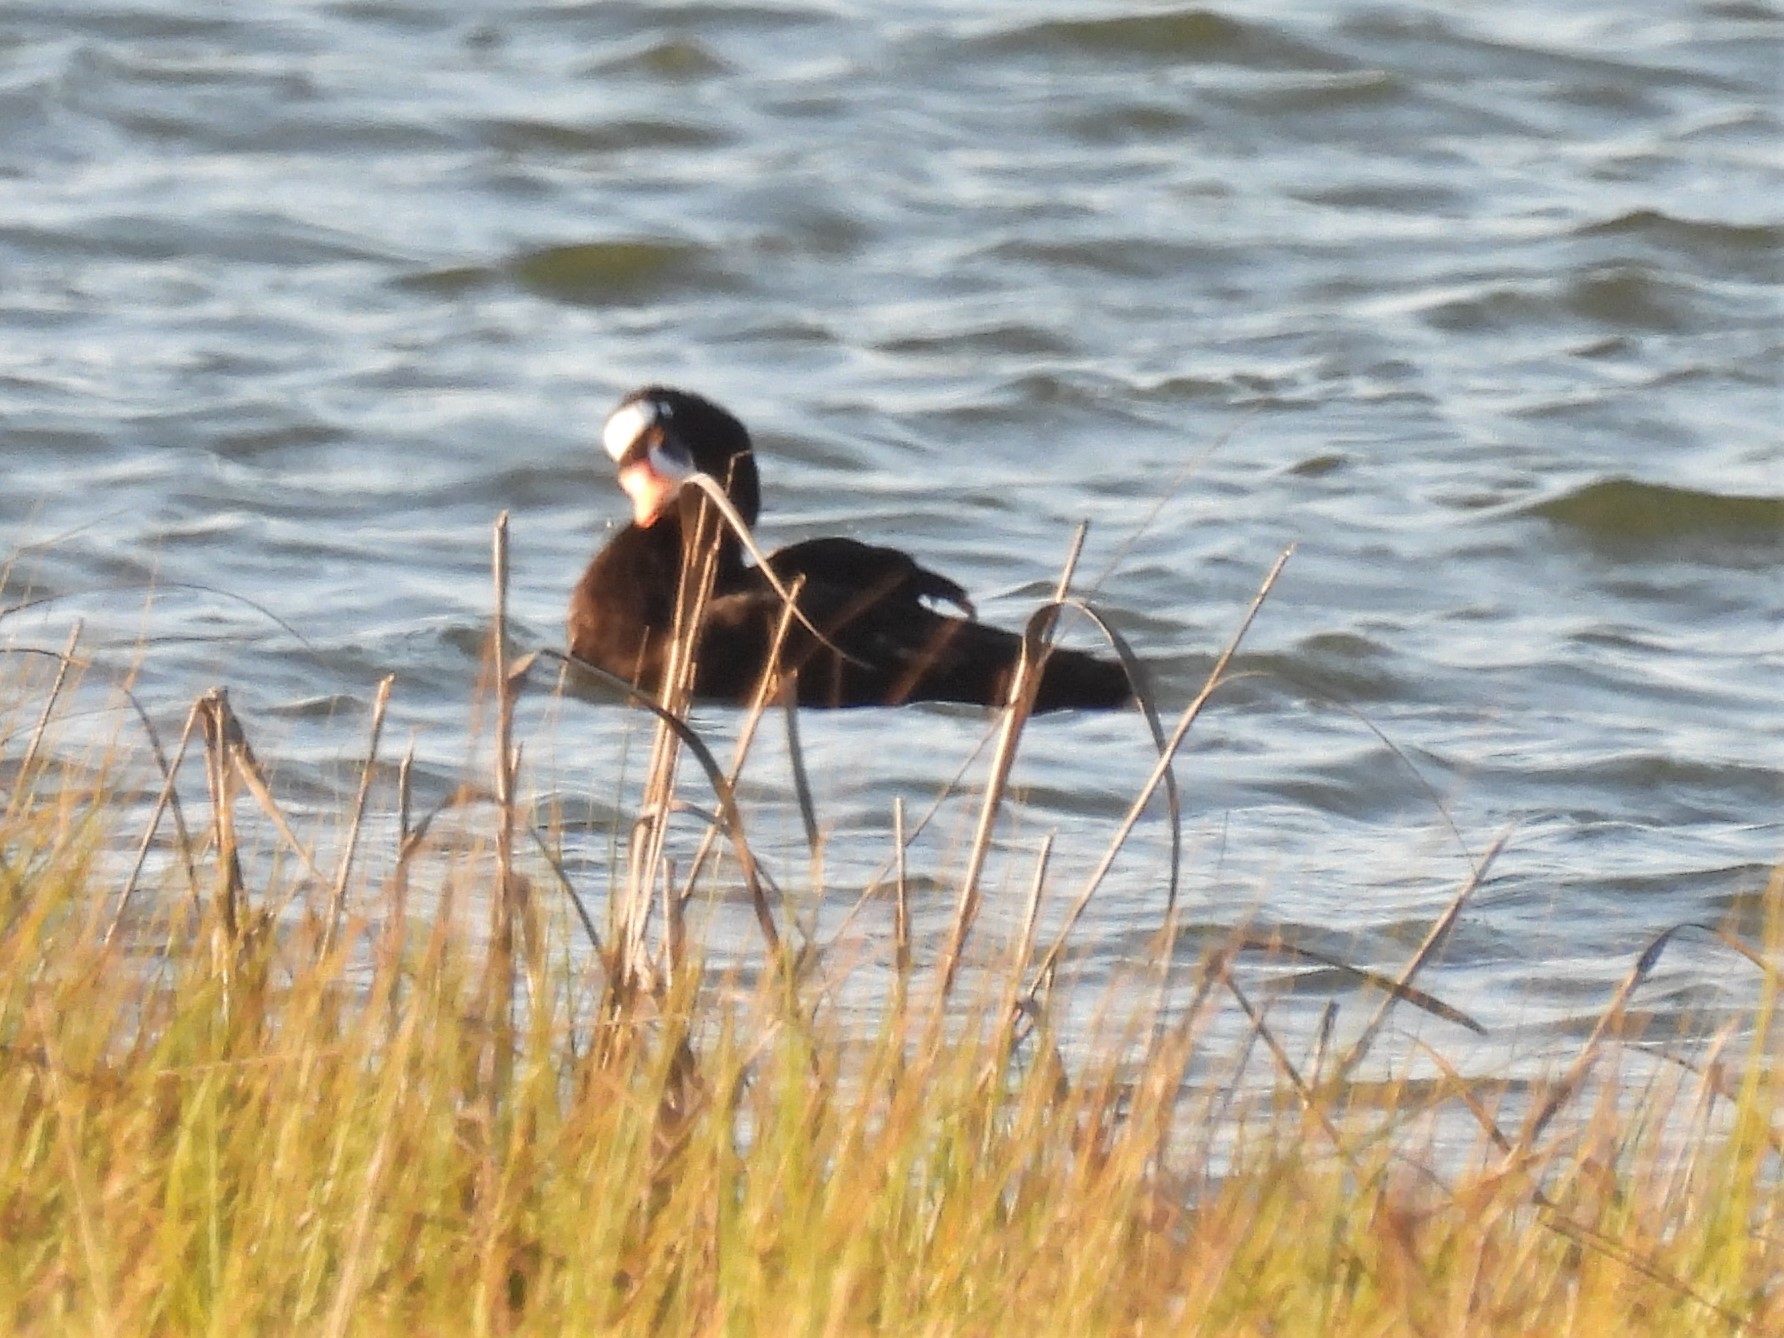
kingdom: Animalia
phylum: Chordata
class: Aves
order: Anseriformes
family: Anatidae
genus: Melanitta
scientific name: Melanitta perspicillata
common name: Surf scoter
